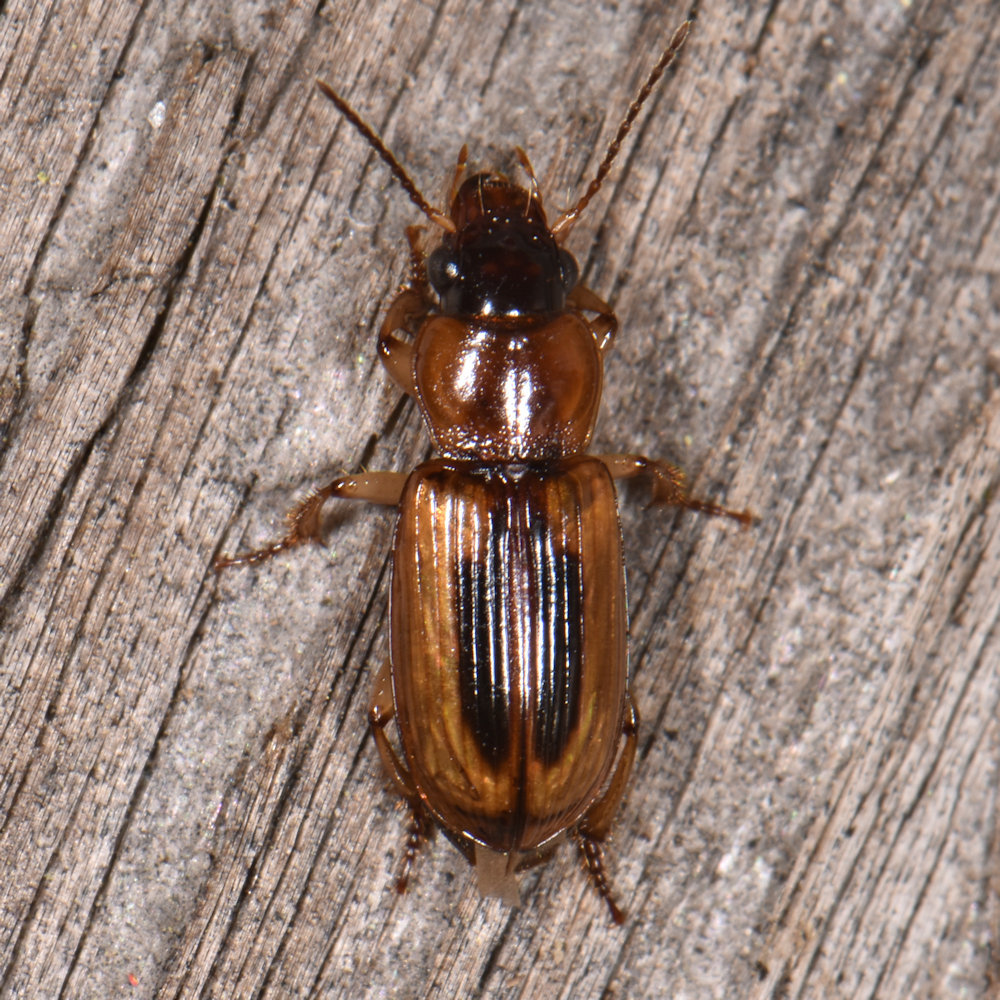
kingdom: Animalia
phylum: Arthropoda
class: Insecta
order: Coleoptera
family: Carabidae
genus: Stenolophus
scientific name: Stenolophus lecontei
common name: Leconte's seedcorn beetle
